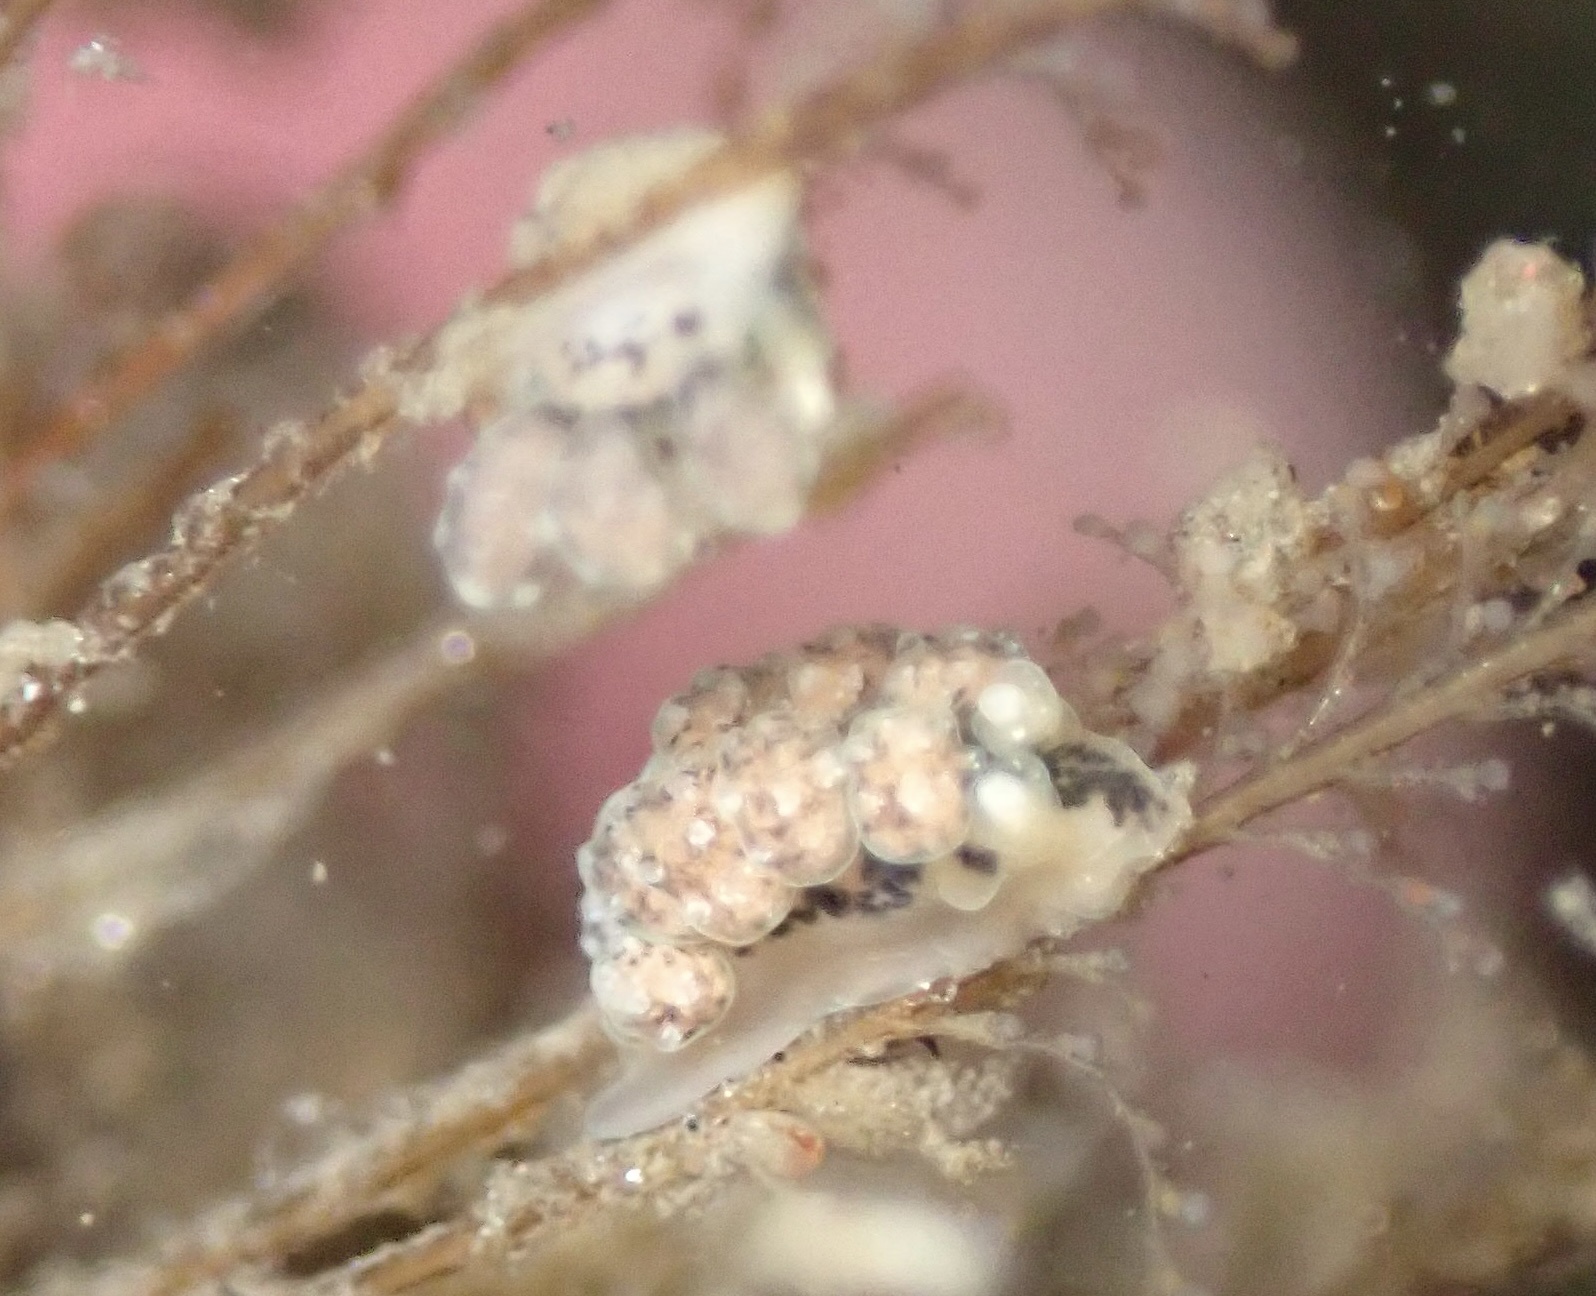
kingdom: Animalia
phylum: Mollusca
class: Gastropoda
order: Nudibranchia
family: Dotidae
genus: Doto
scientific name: Doto kya
